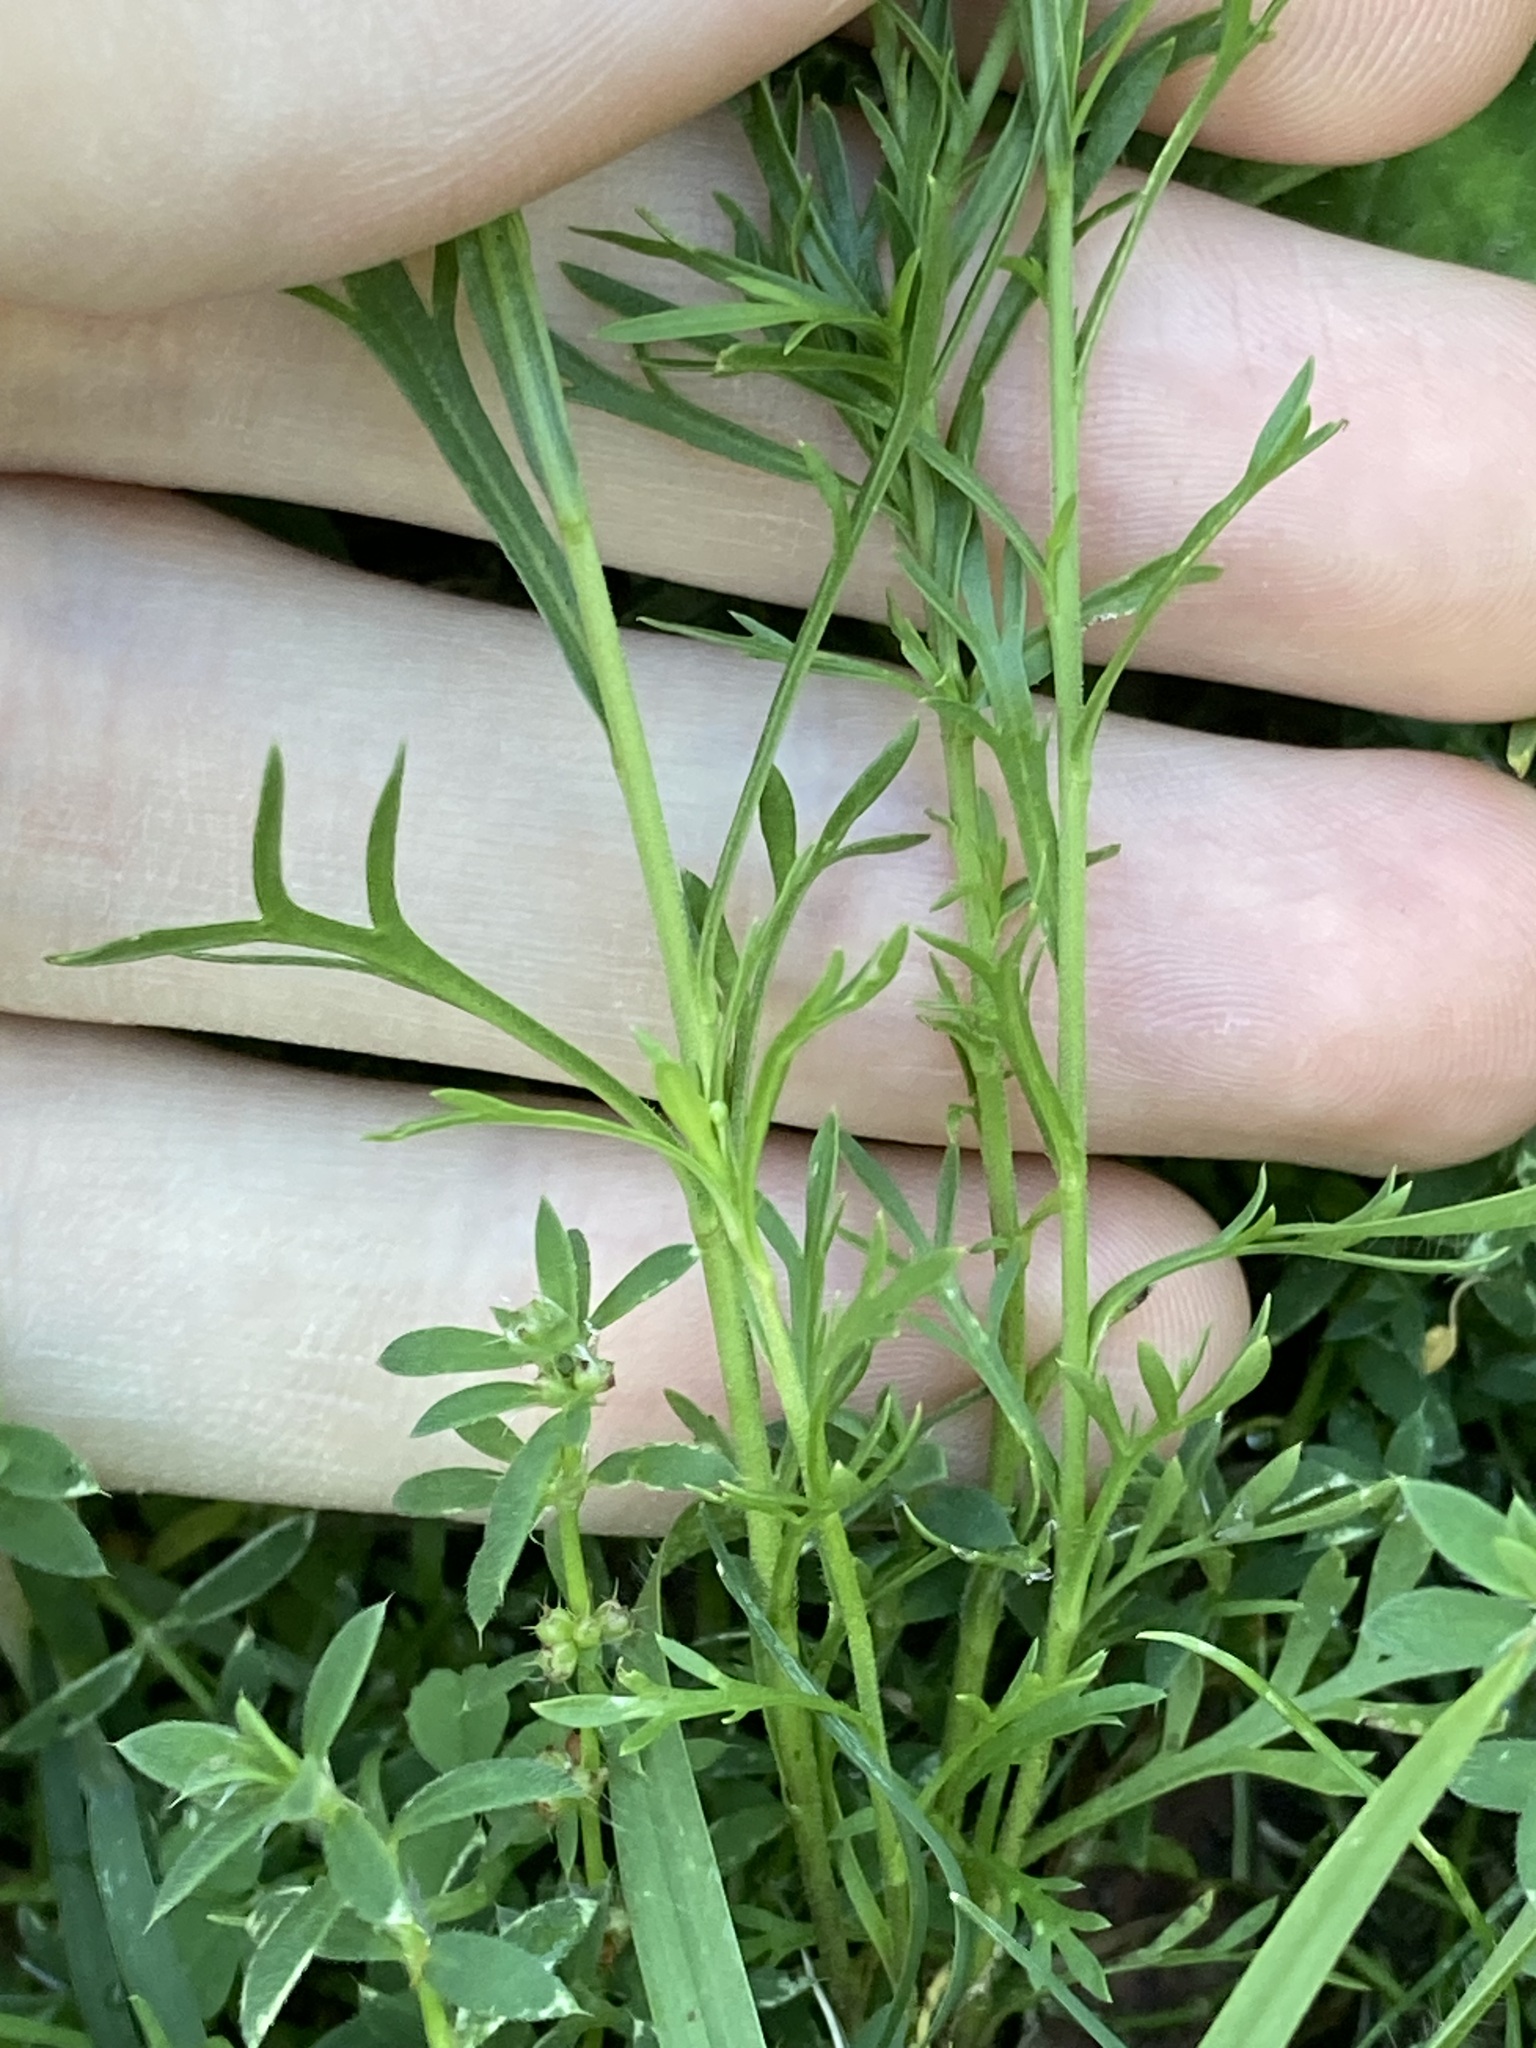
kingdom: Plantae
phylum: Tracheophyta
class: Magnoliopsida
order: Brassicales
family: Brassicaceae
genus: Lepidium
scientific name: Lepidium bonariense
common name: Argentine pepperwort
